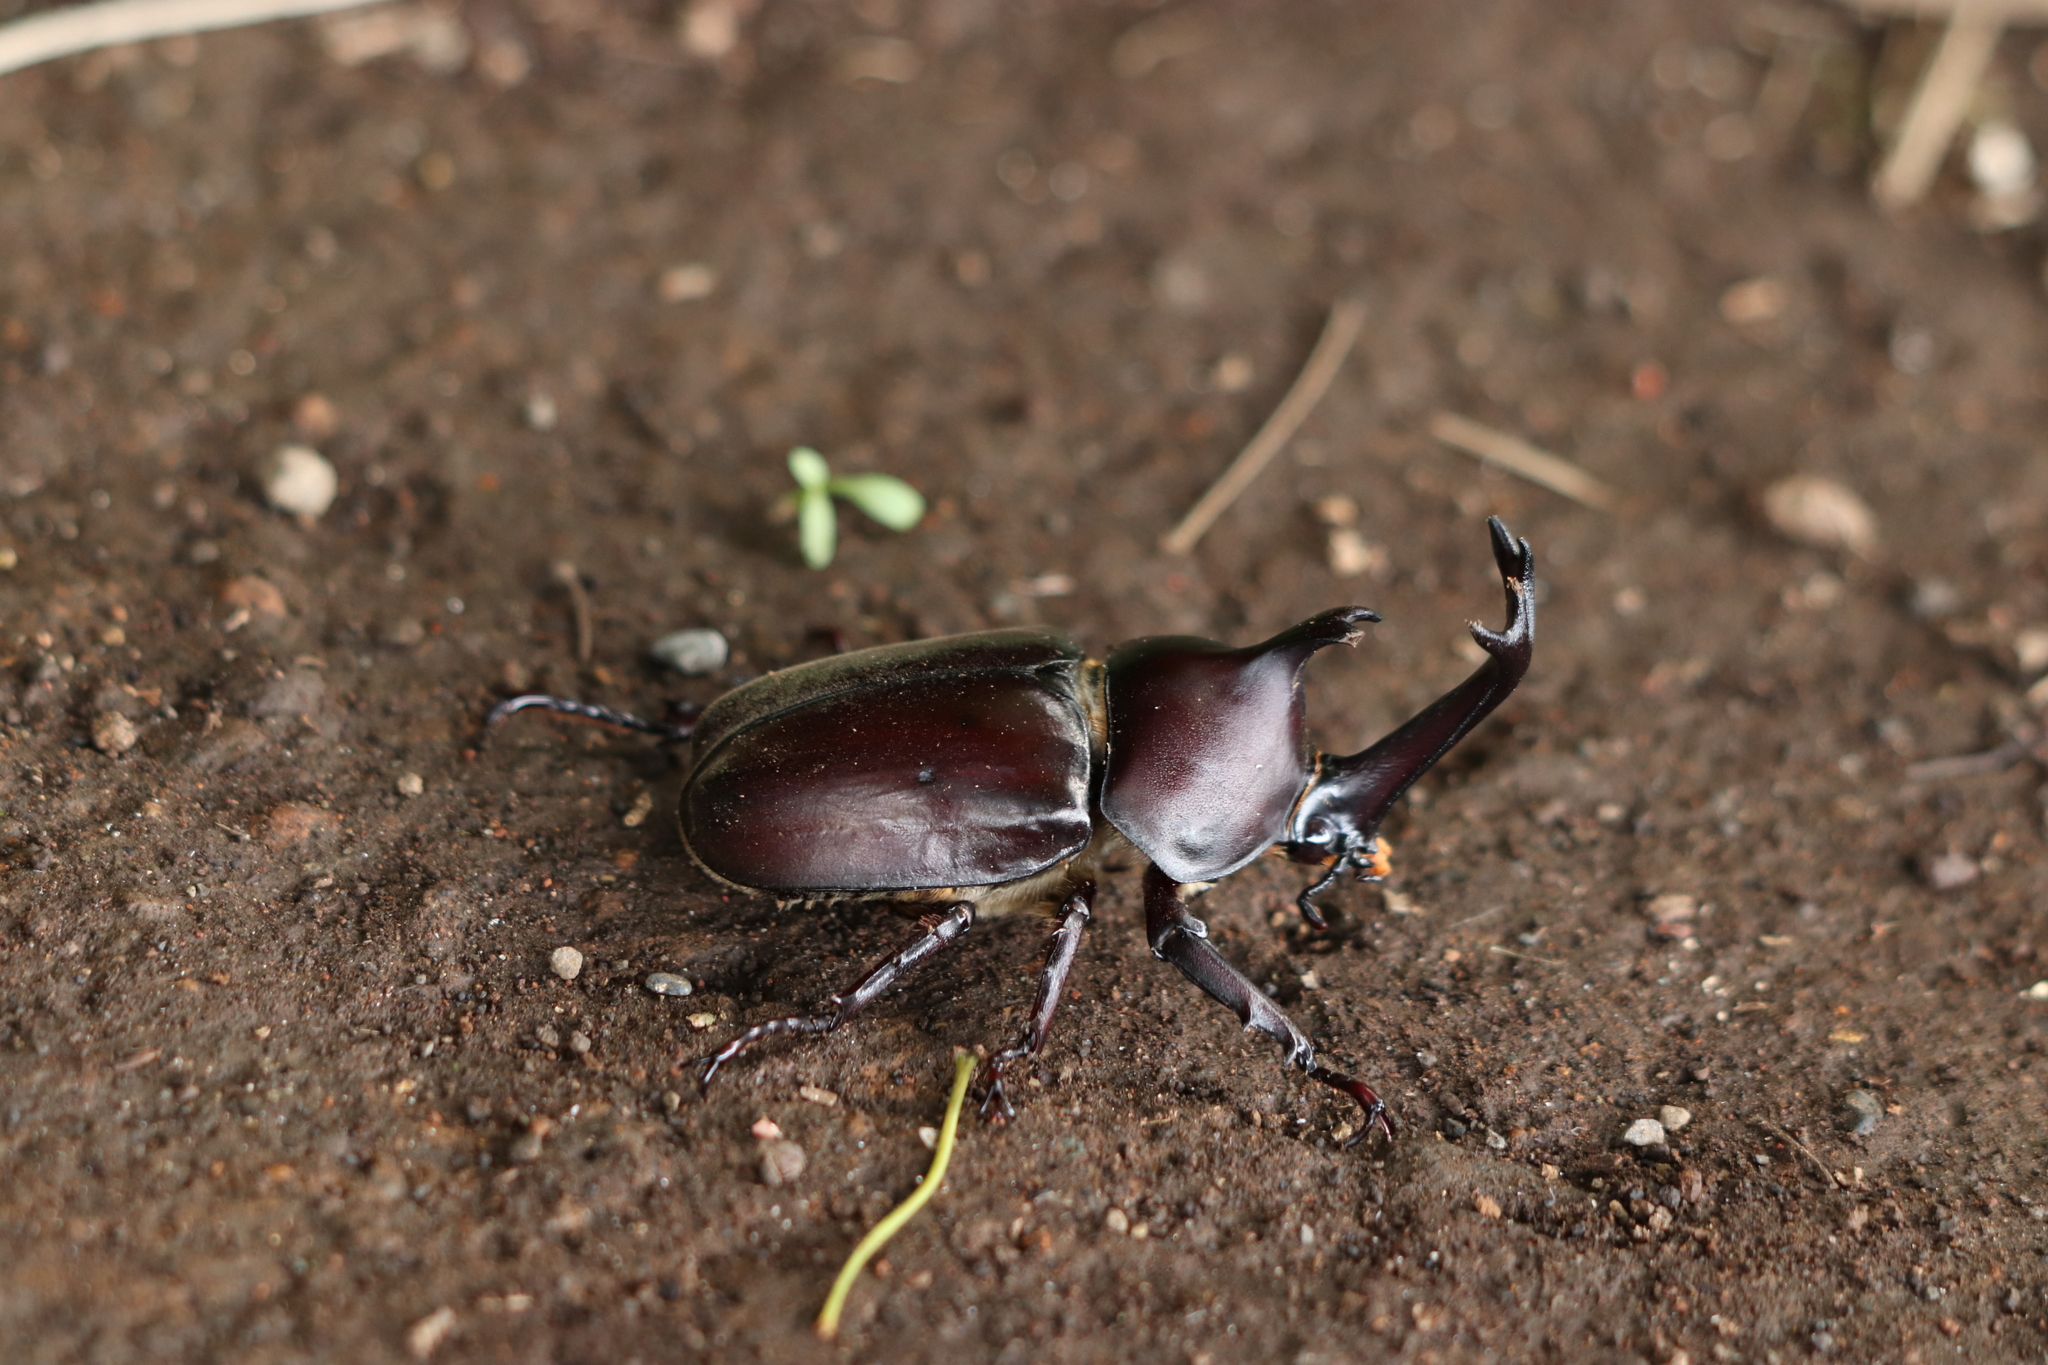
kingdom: Animalia
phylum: Arthropoda
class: Insecta
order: Coleoptera
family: Scarabaeidae
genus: Trypoxylus
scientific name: Trypoxylus dichotomus
